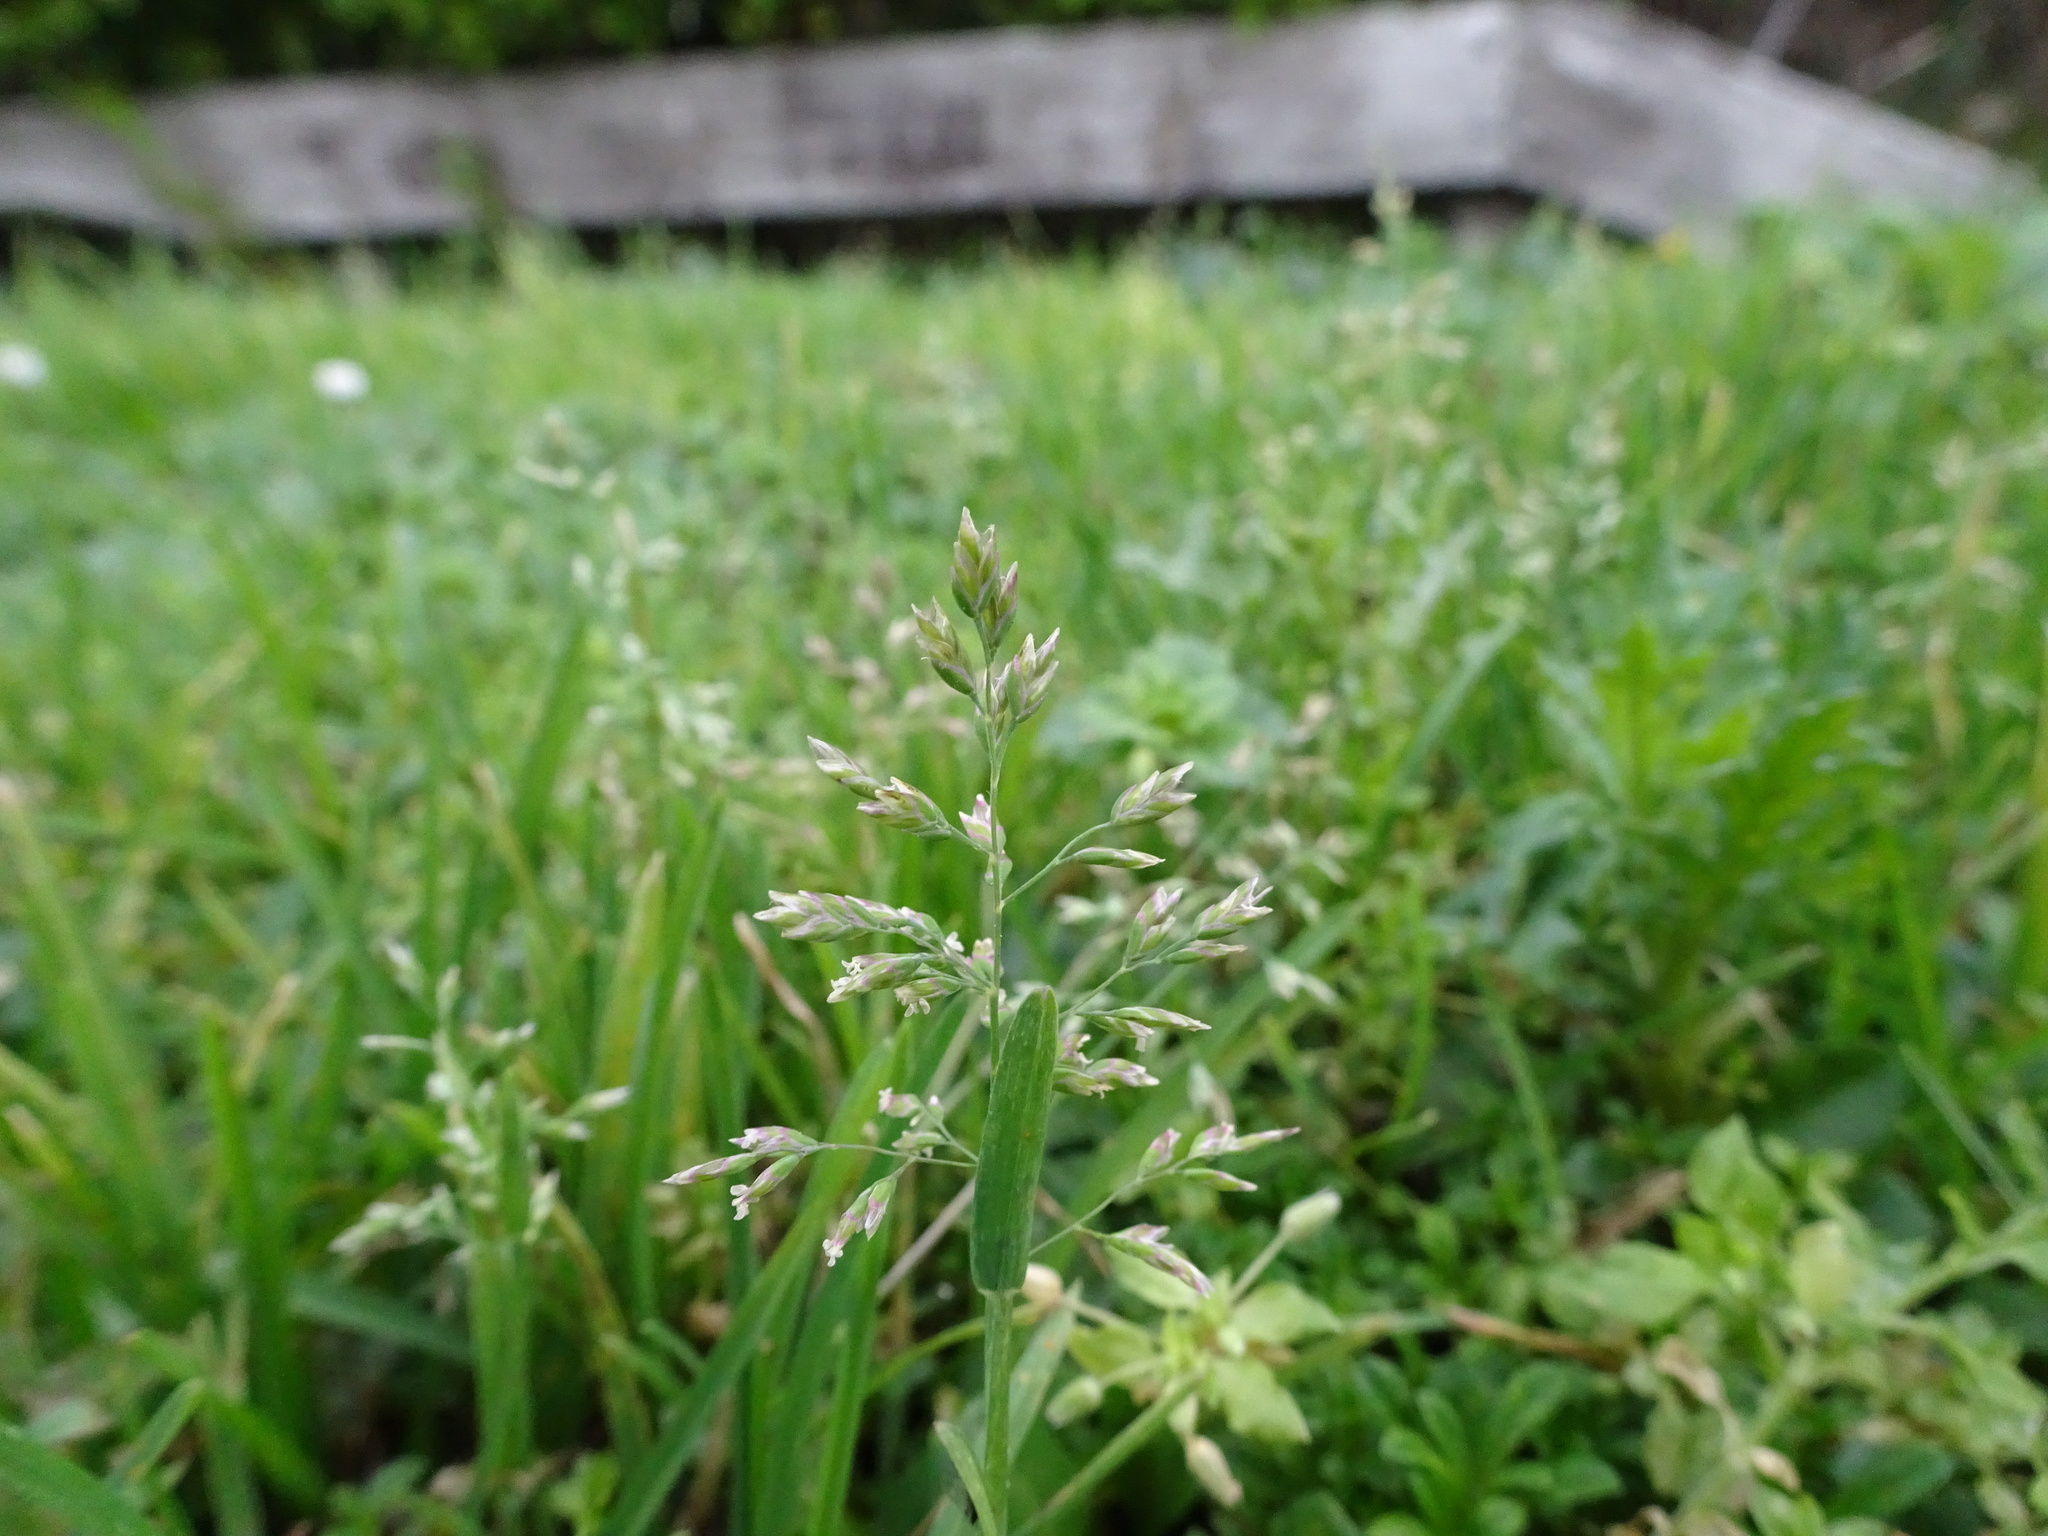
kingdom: Plantae
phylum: Tracheophyta
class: Liliopsida
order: Poales
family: Poaceae
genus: Poa
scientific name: Poa annua
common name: Annual bluegrass
